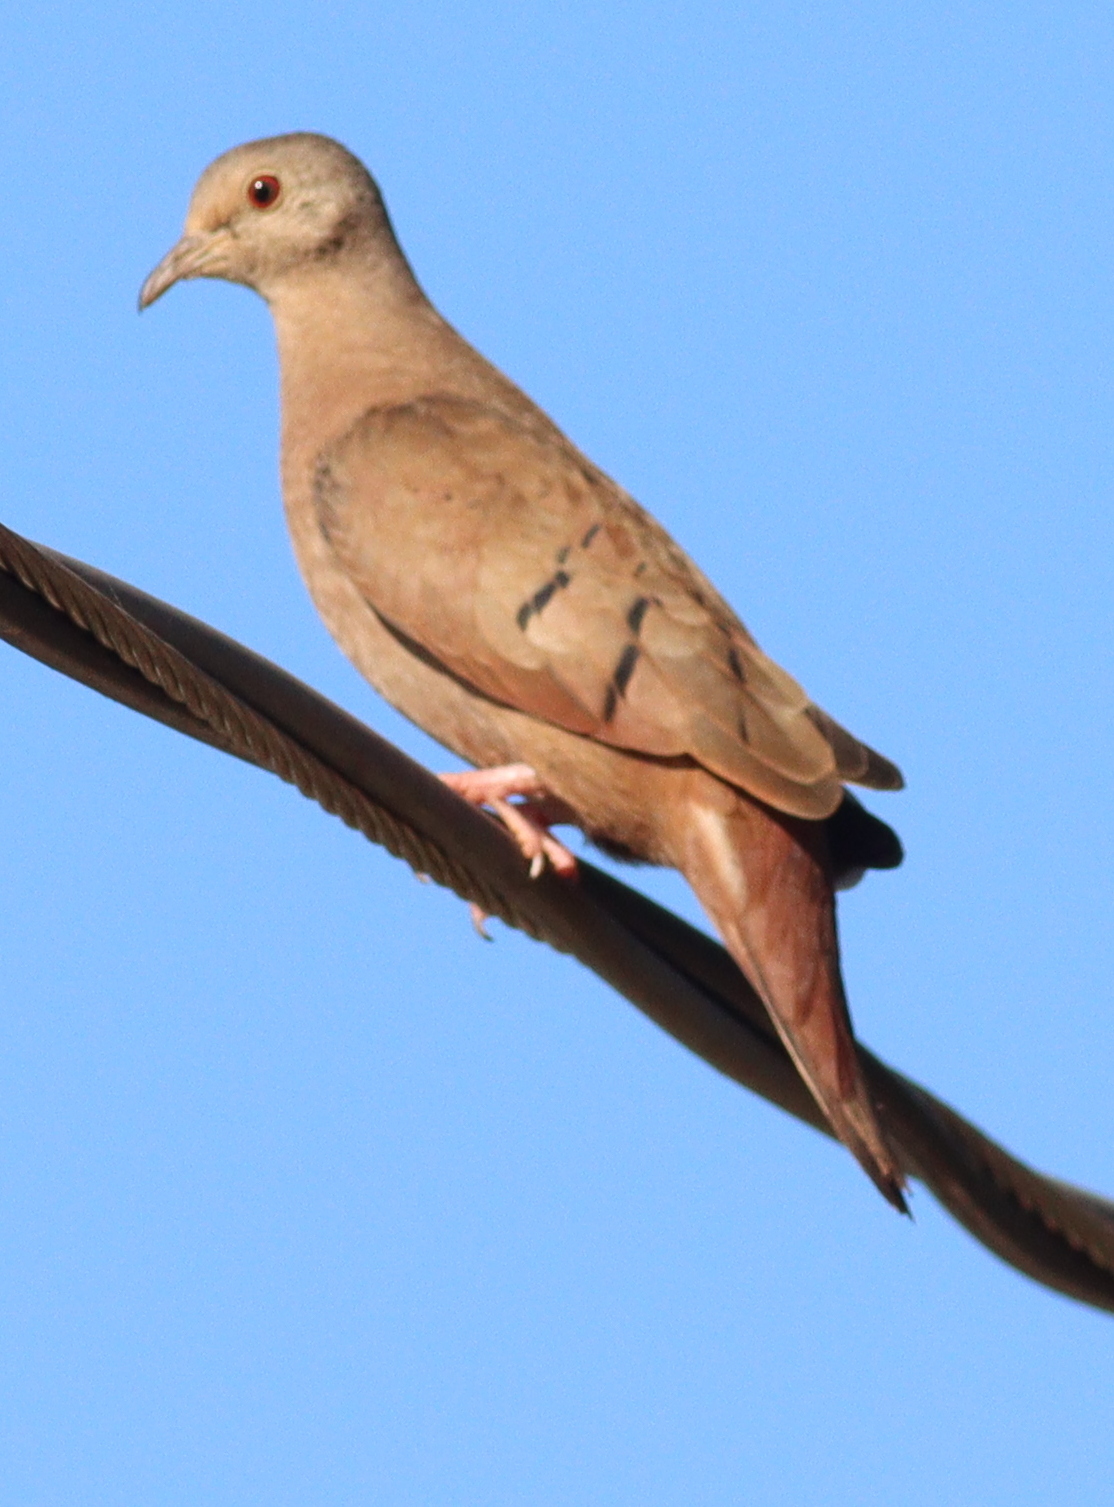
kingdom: Animalia
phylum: Chordata
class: Aves
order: Columbiformes
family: Columbidae
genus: Columbina
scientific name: Columbina talpacoti
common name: Ruddy ground dove
